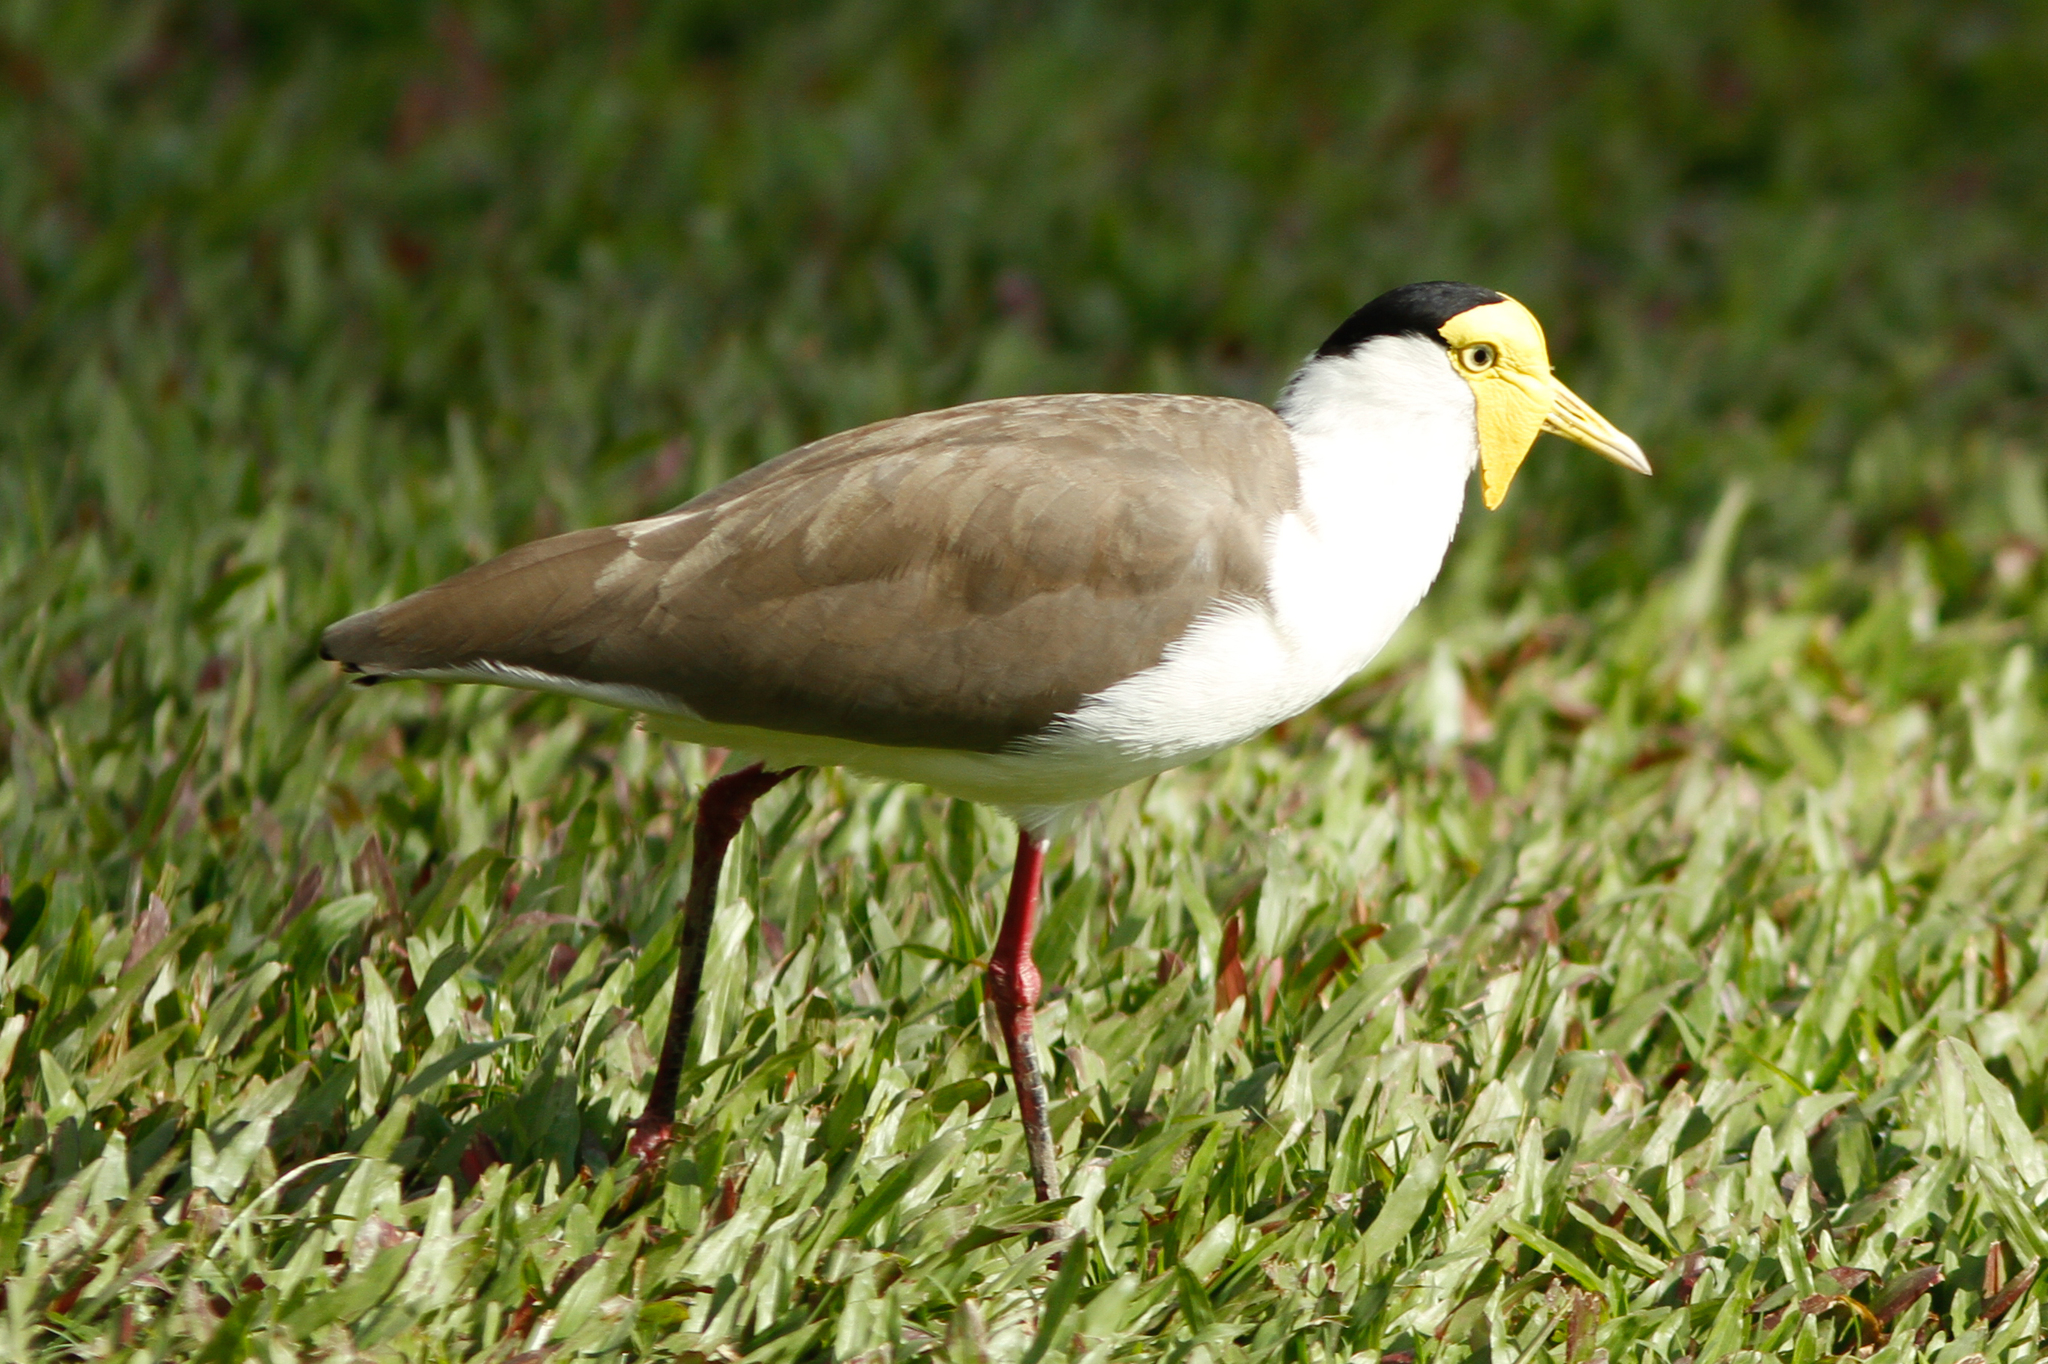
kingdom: Animalia
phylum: Chordata
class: Aves
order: Charadriiformes
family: Charadriidae
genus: Vanellus
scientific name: Vanellus miles
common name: Masked lapwing
